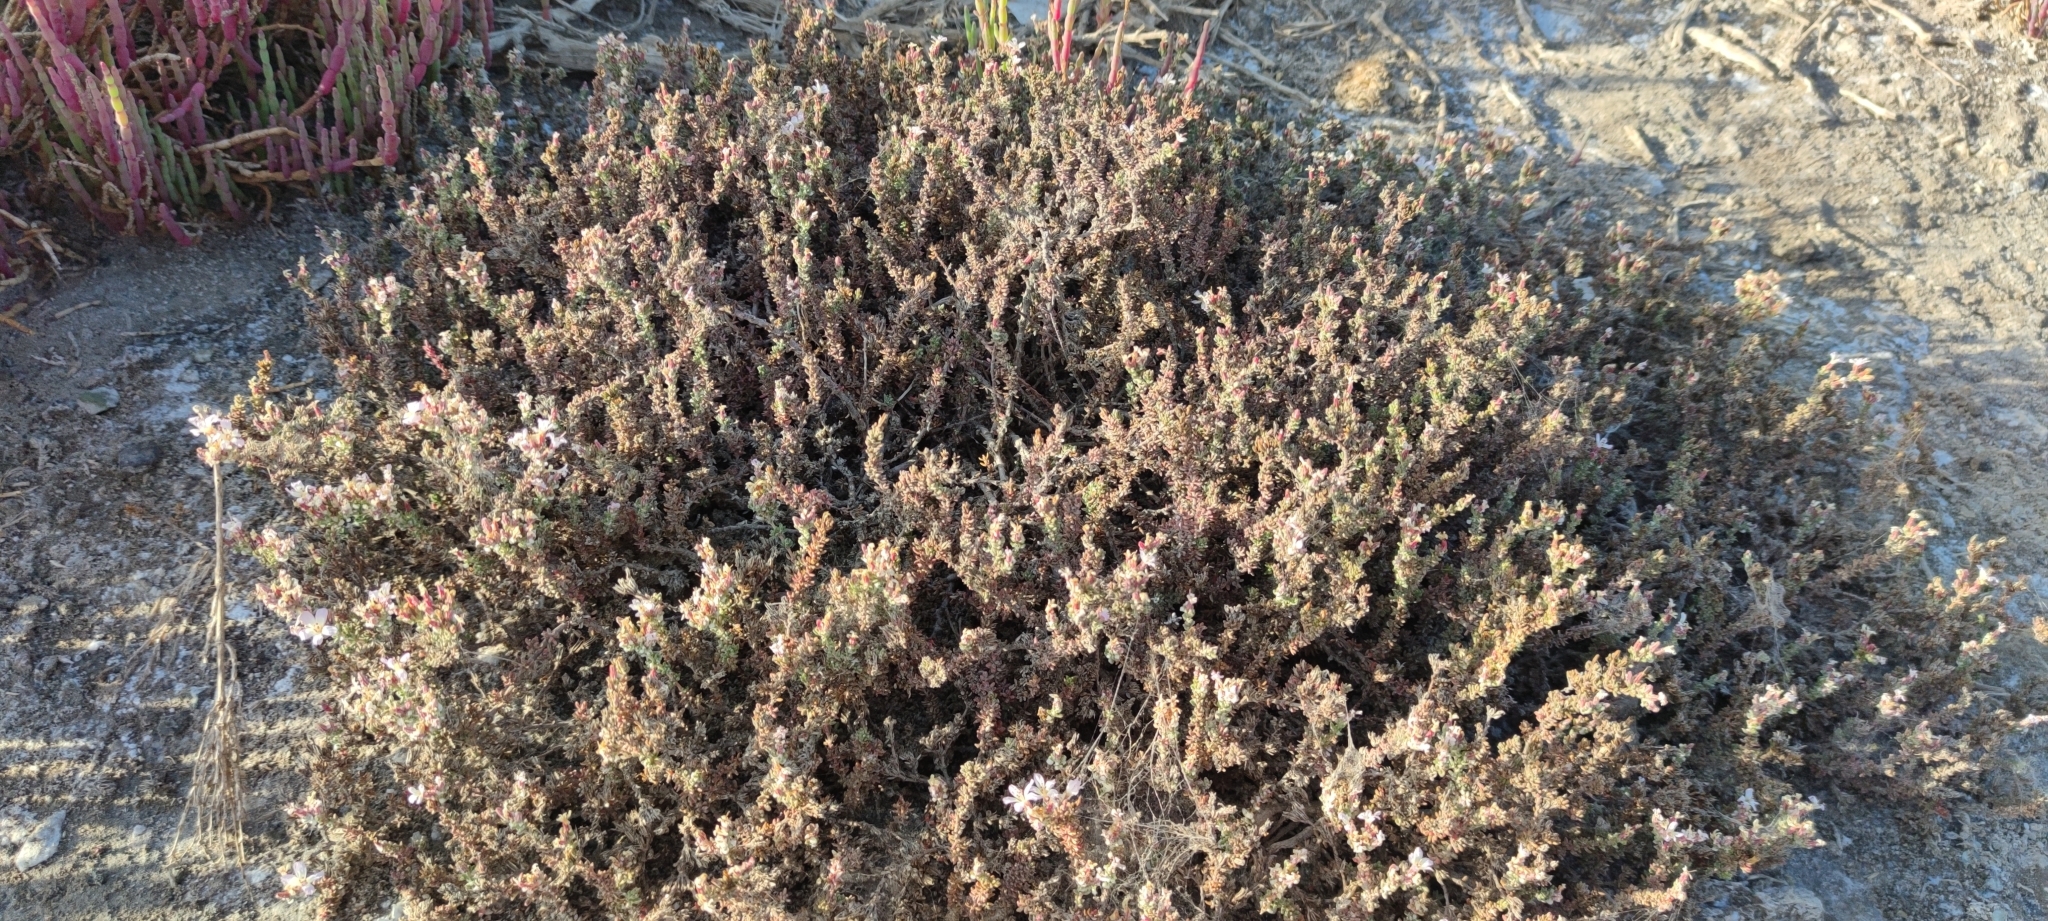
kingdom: Plantae
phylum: Tracheophyta
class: Magnoliopsida
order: Caryophyllales
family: Frankeniaceae
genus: Frankenia
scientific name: Frankenia chilensis
